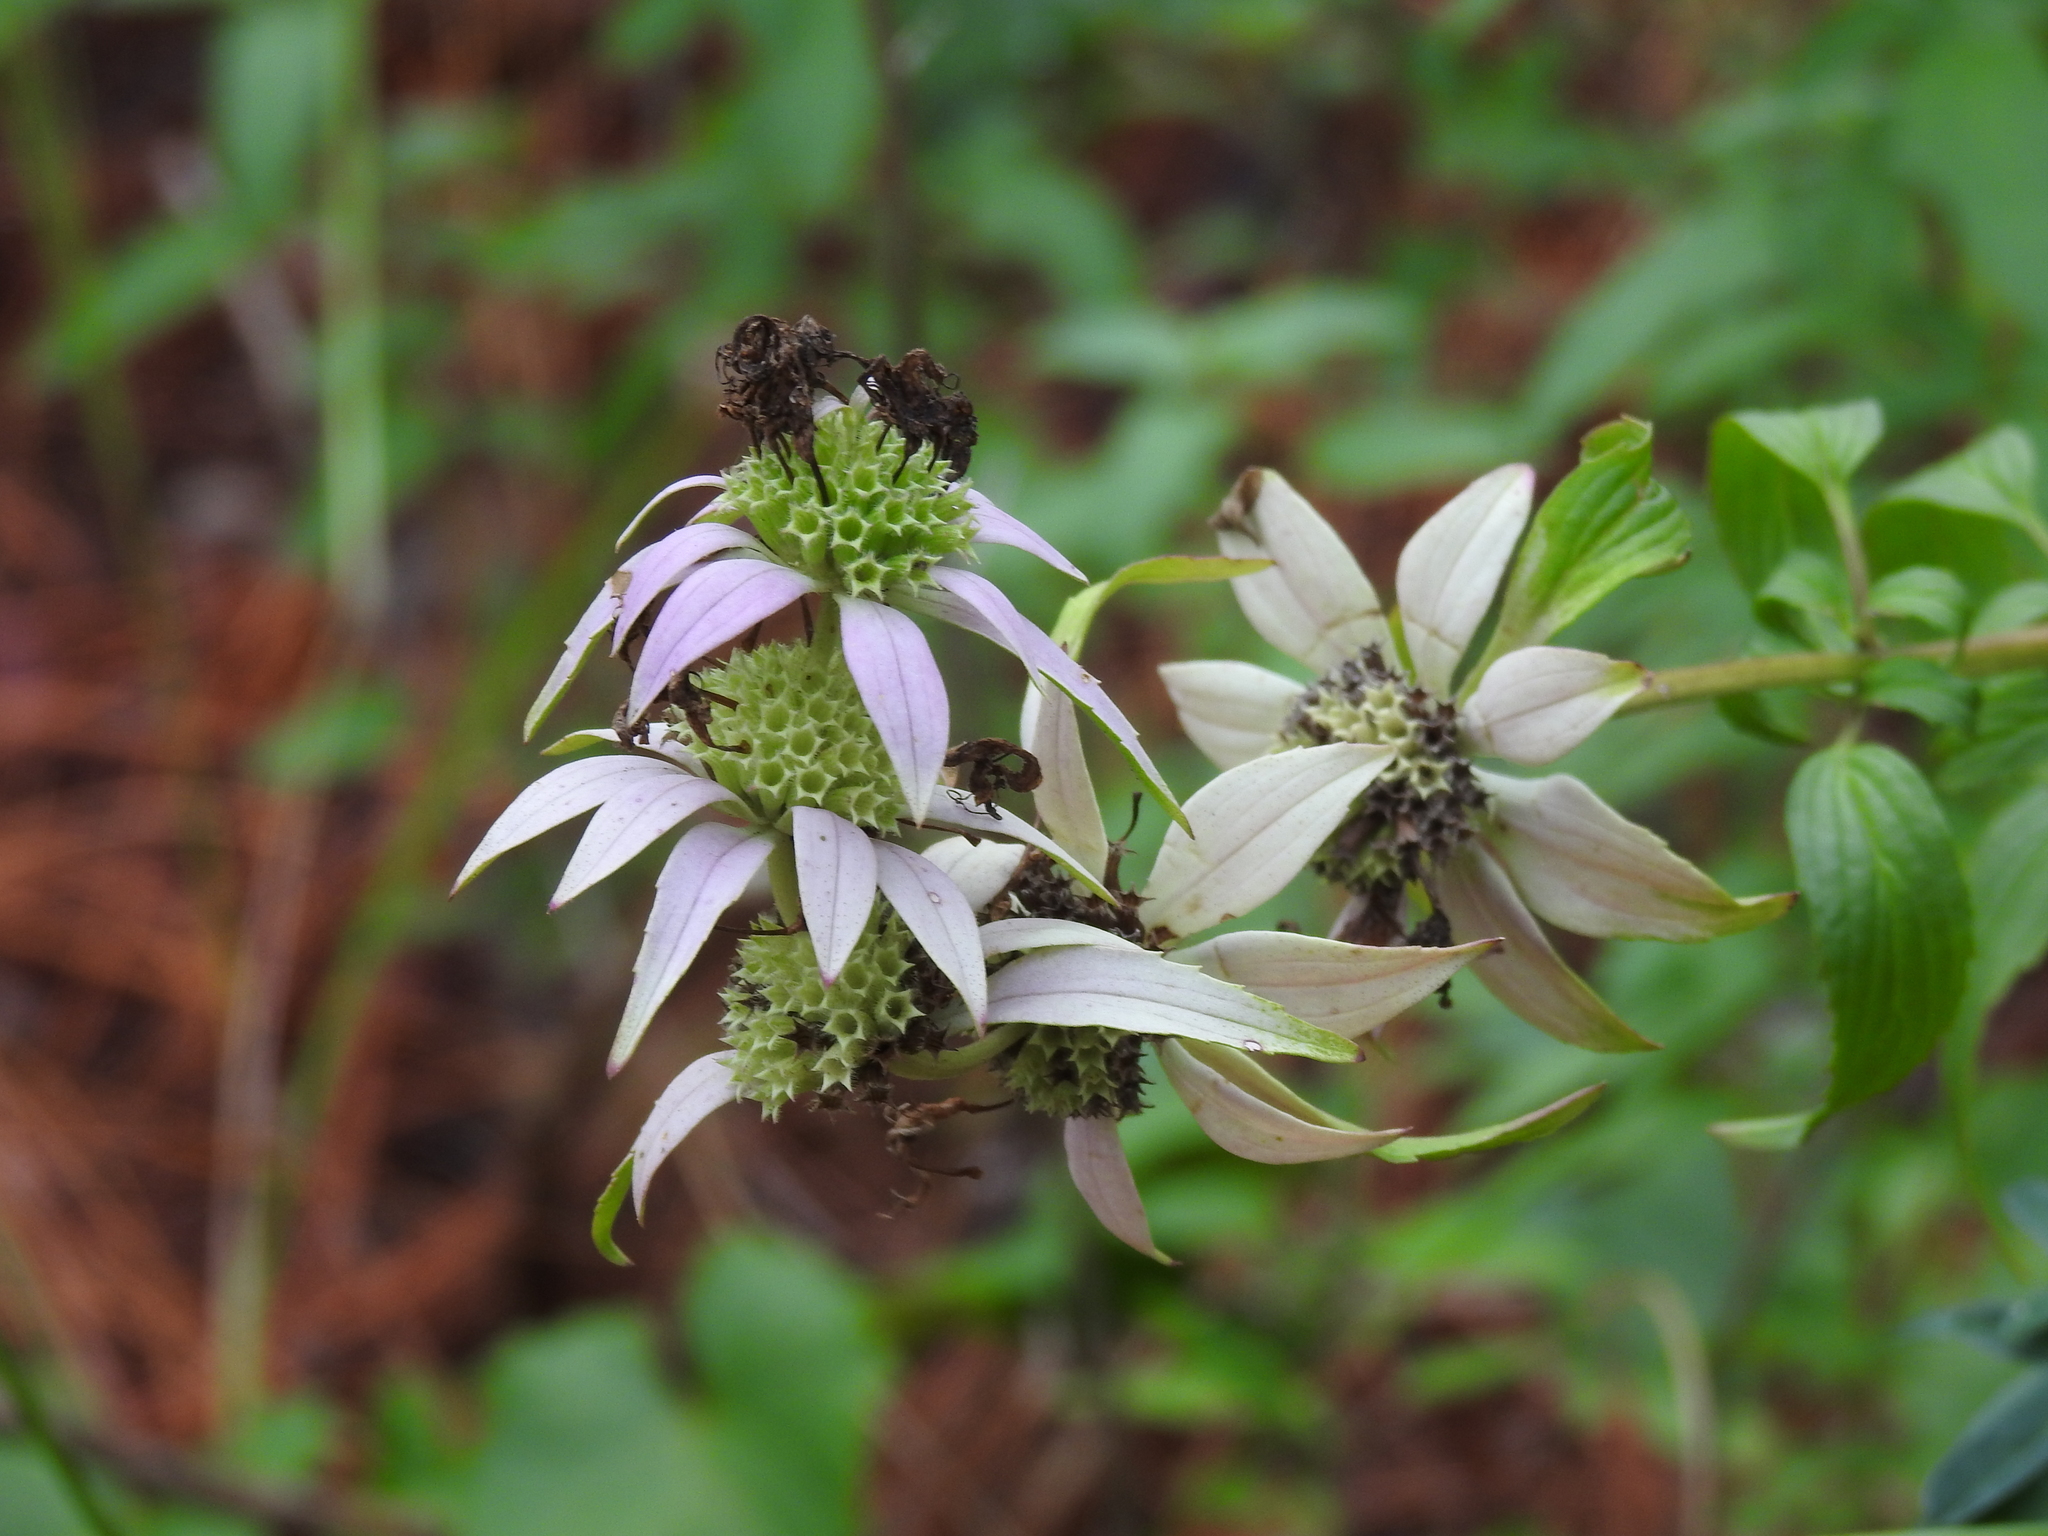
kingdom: Plantae
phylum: Tracheophyta
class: Magnoliopsida
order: Lamiales
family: Lamiaceae
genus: Monarda
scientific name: Monarda punctata
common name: Dotted monarda
